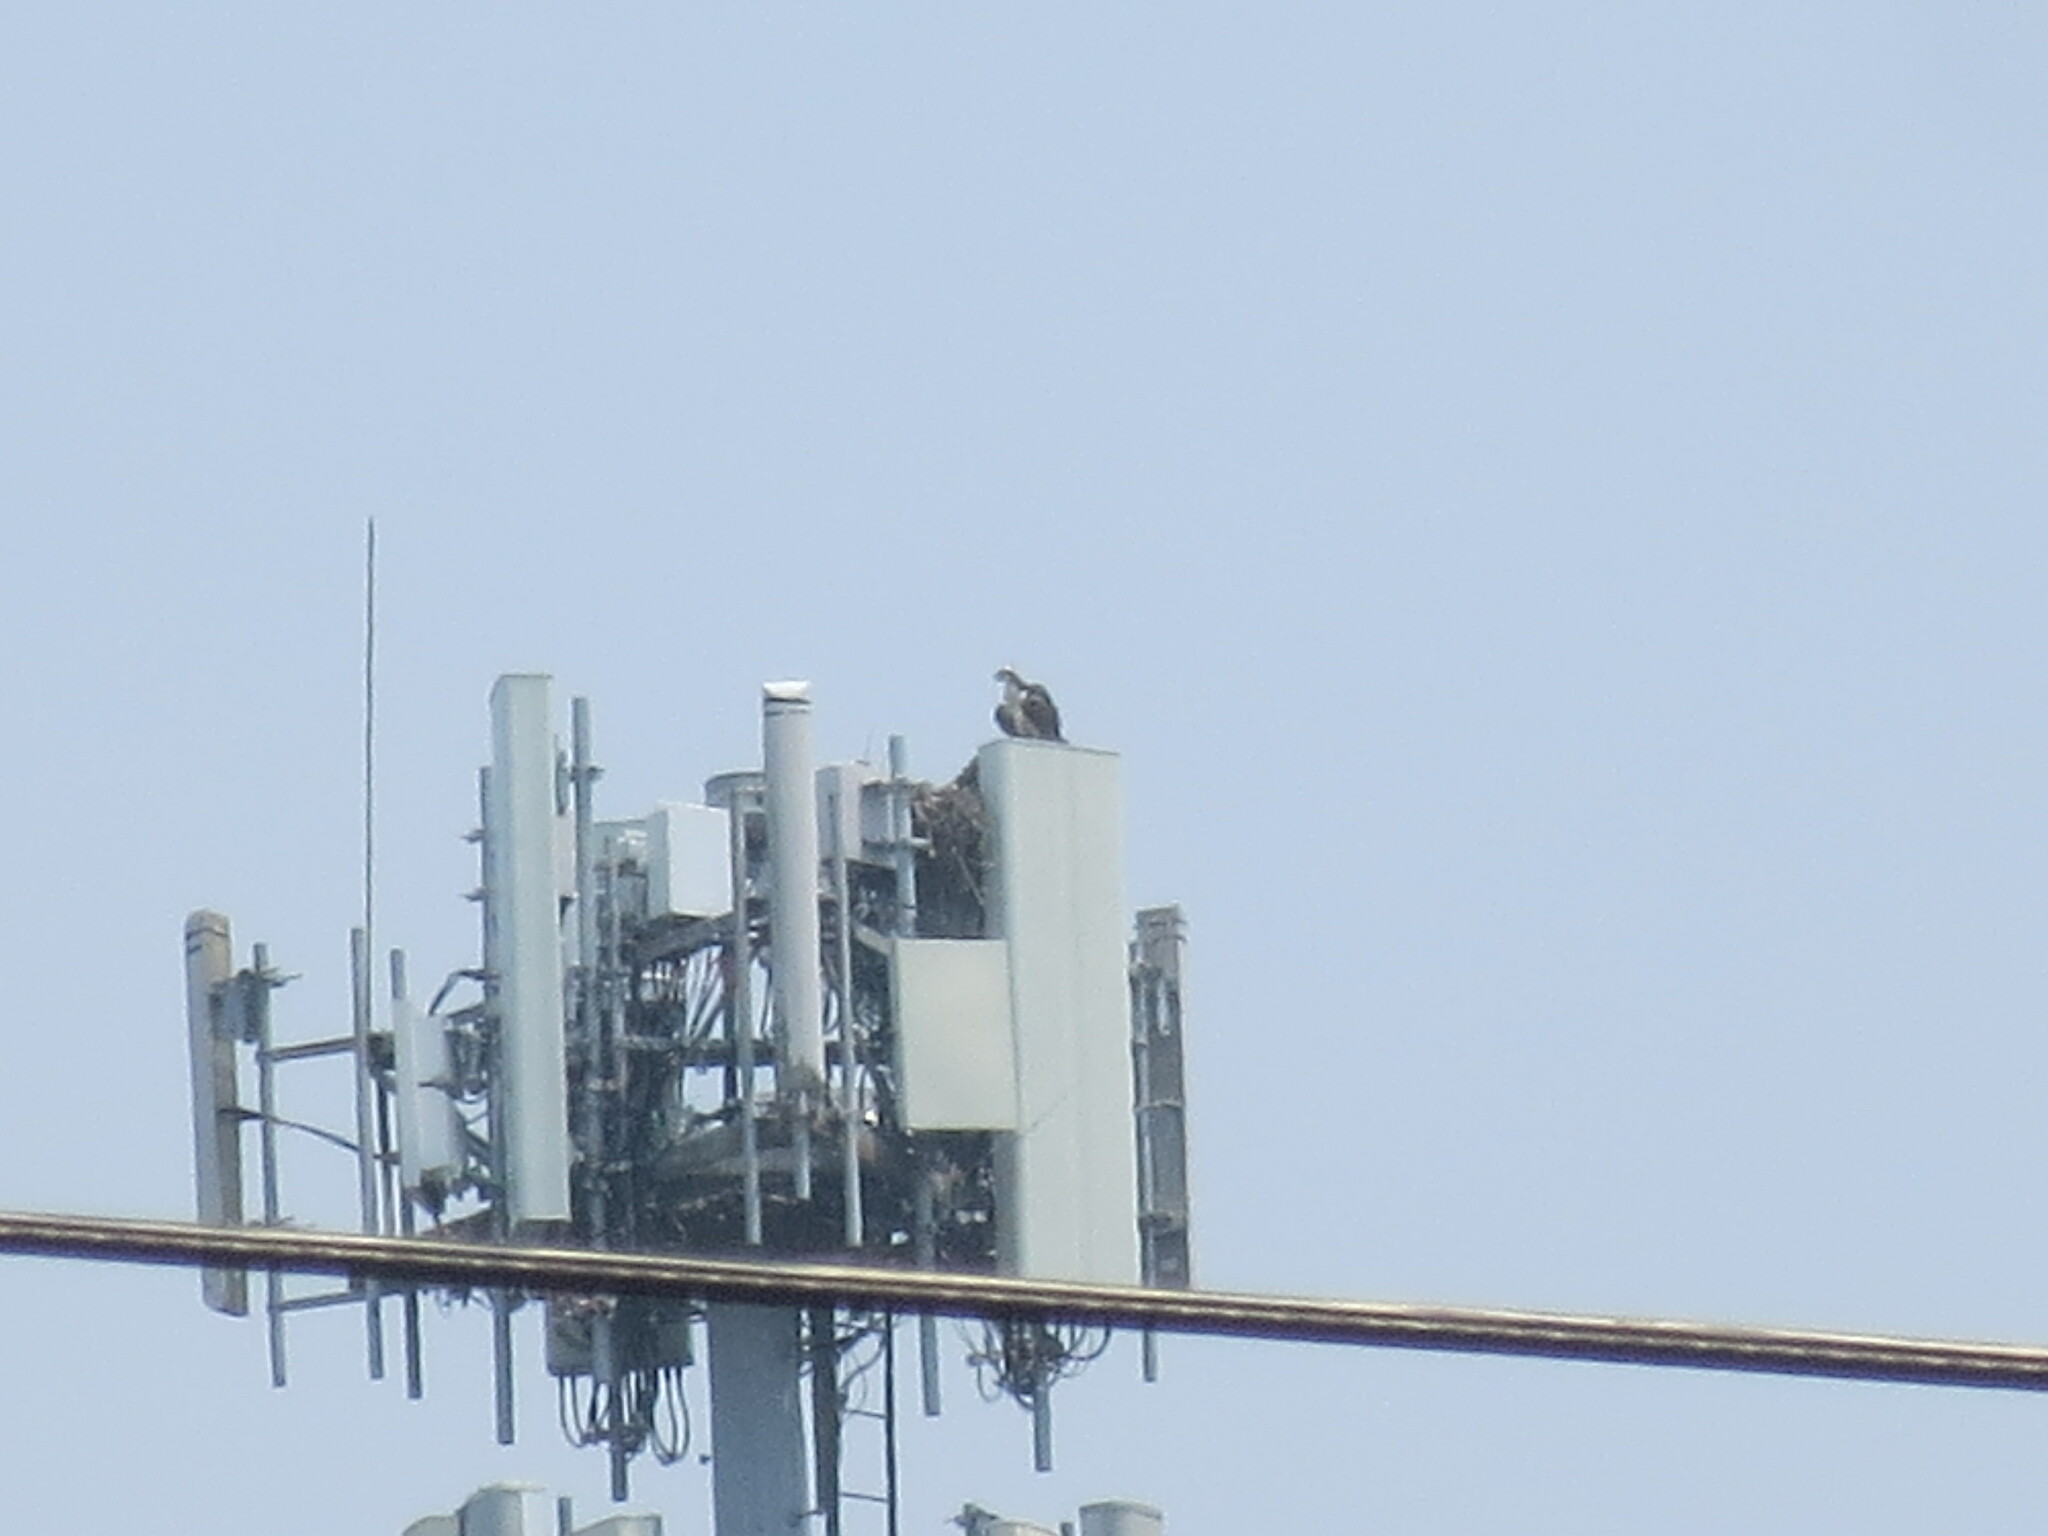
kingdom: Animalia
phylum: Chordata
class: Aves
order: Accipitriformes
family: Pandionidae
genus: Pandion
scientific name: Pandion haliaetus
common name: Osprey
